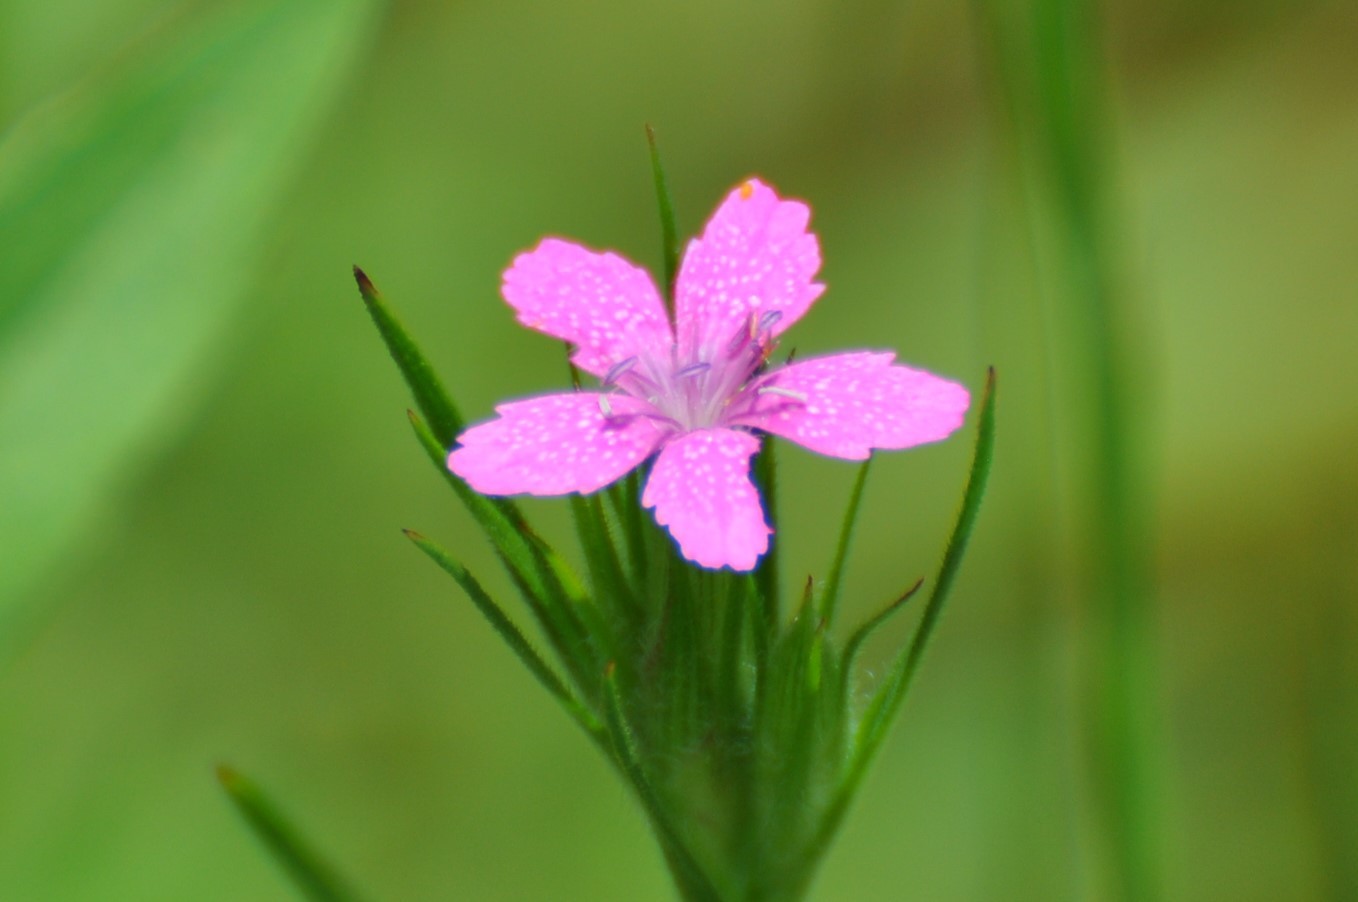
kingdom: Plantae
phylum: Tracheophyta
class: Magnoliopsida
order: Caryophyllales
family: Caryophyllaceae
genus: Dianthus
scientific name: Dianthus armeria
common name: Deptford pink
